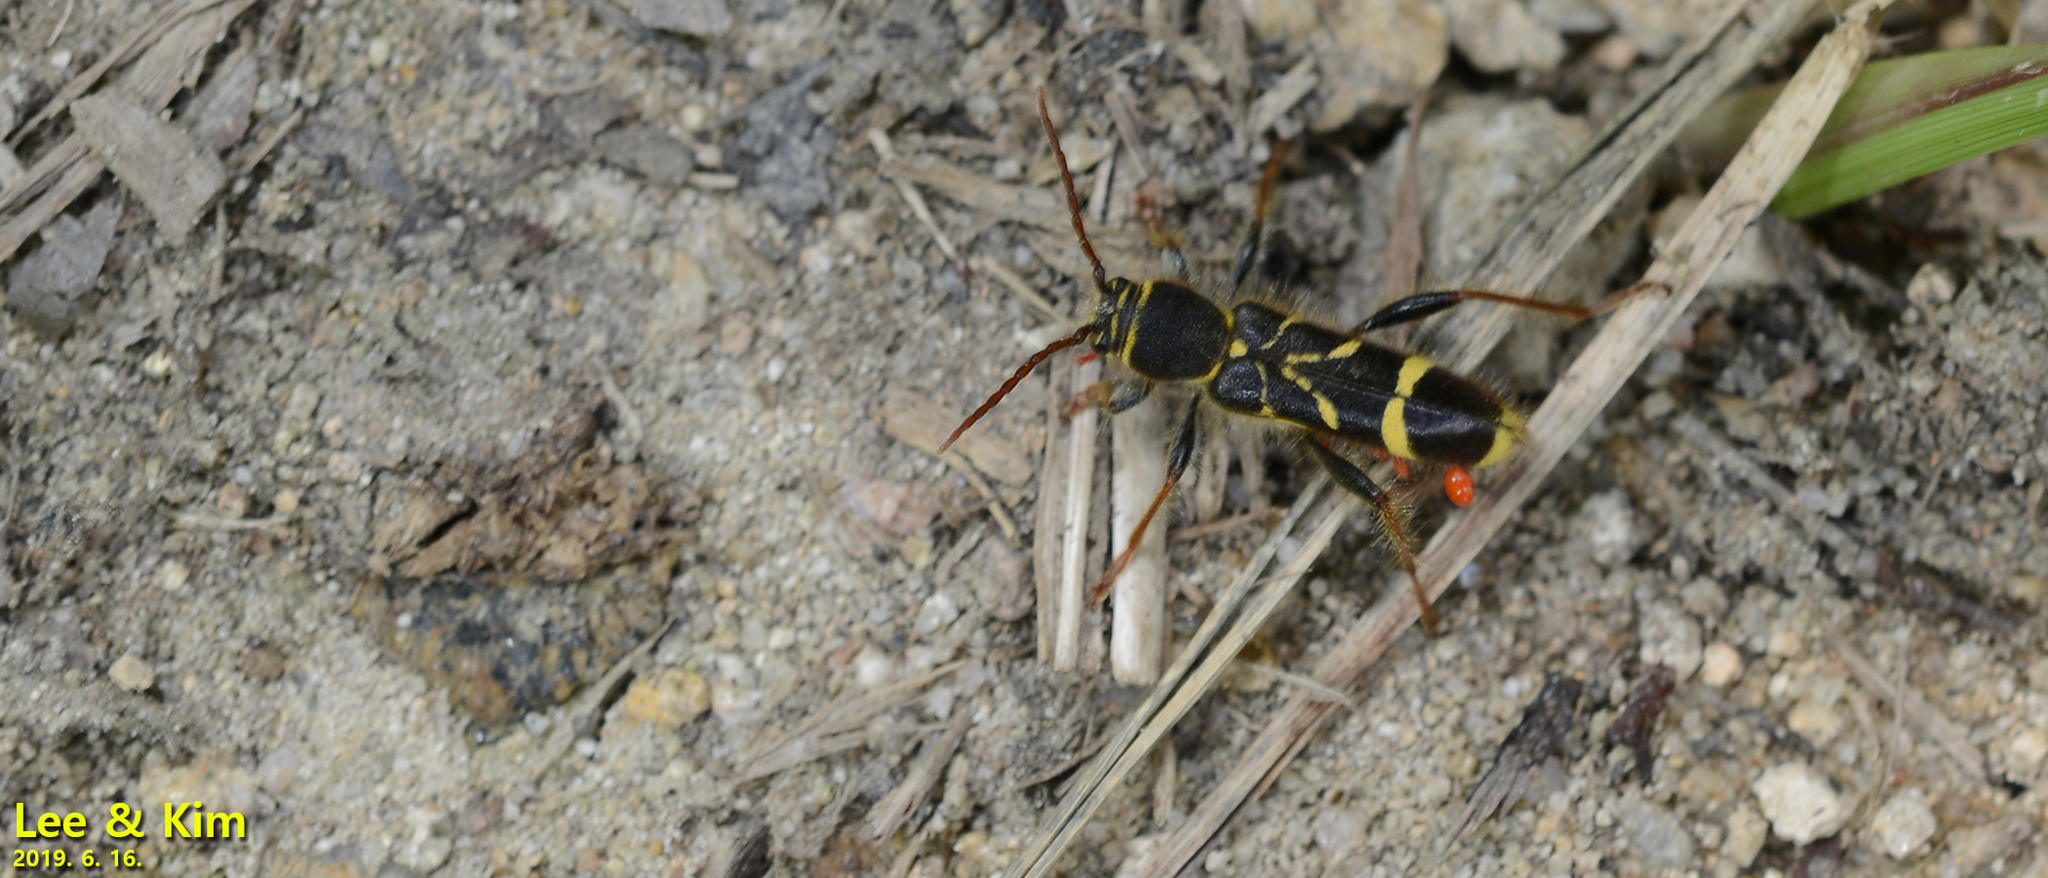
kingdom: Animalia
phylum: Arthropoda
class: Insecta
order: Coleoptera
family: Cerambycidae
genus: Cyrtoclytus
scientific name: Cyrtoclytus capra
